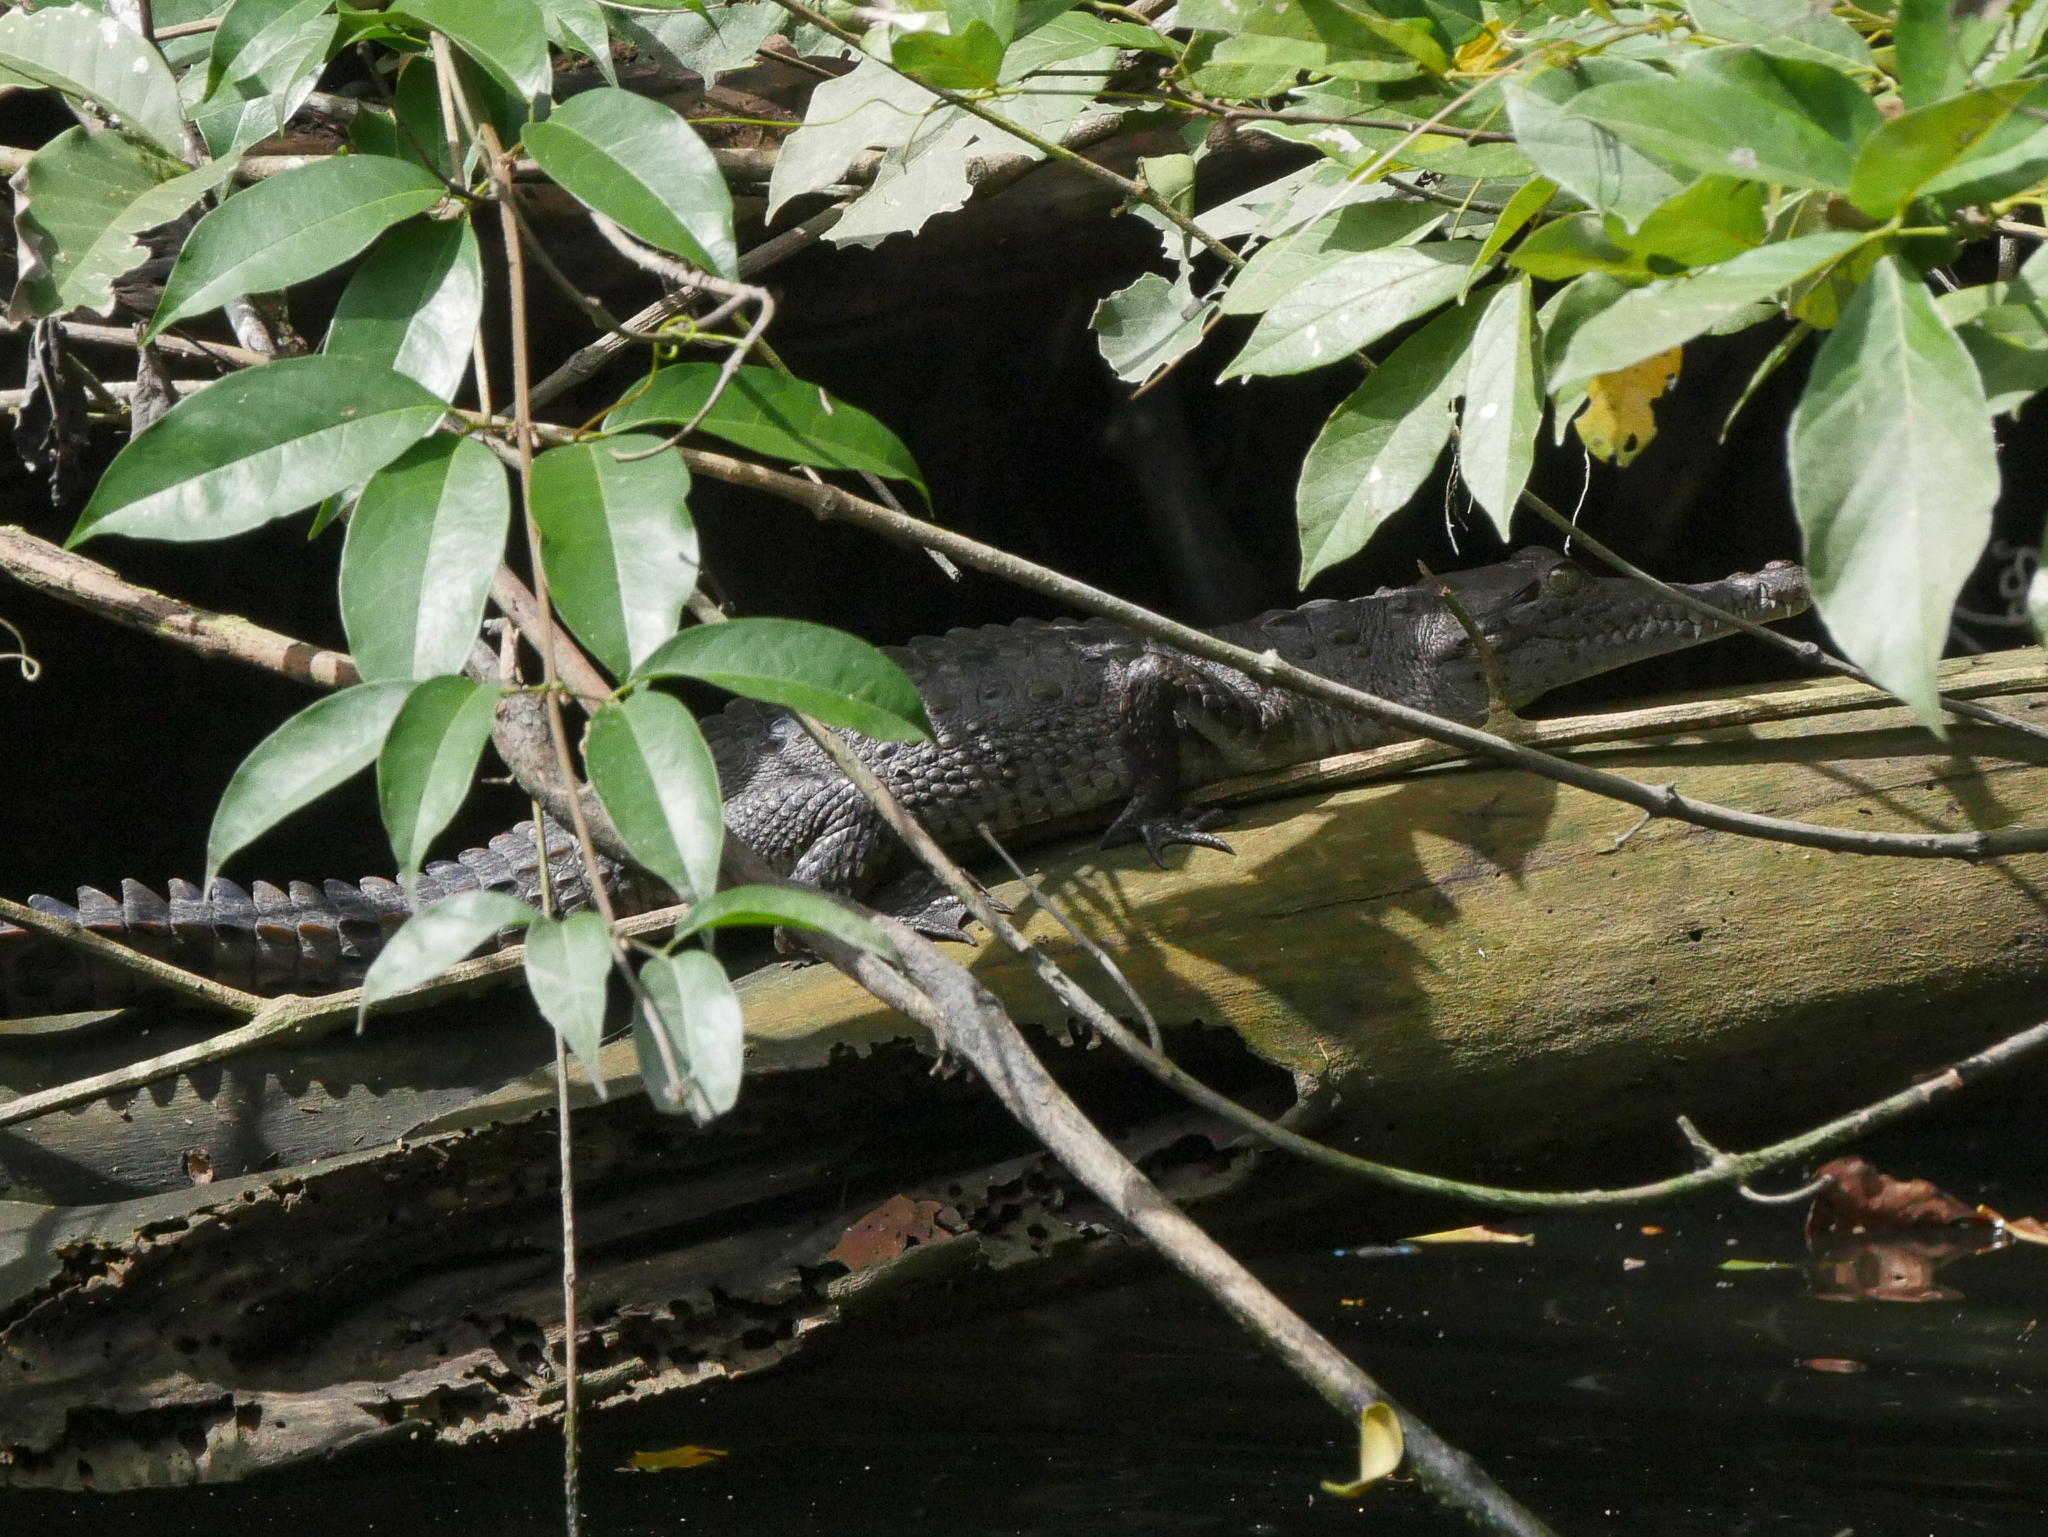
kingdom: Animalia
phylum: Chordata
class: Crocodylia
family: Crocodylidae
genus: Crocodylus
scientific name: Crocodylus acutus
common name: American crocodile
